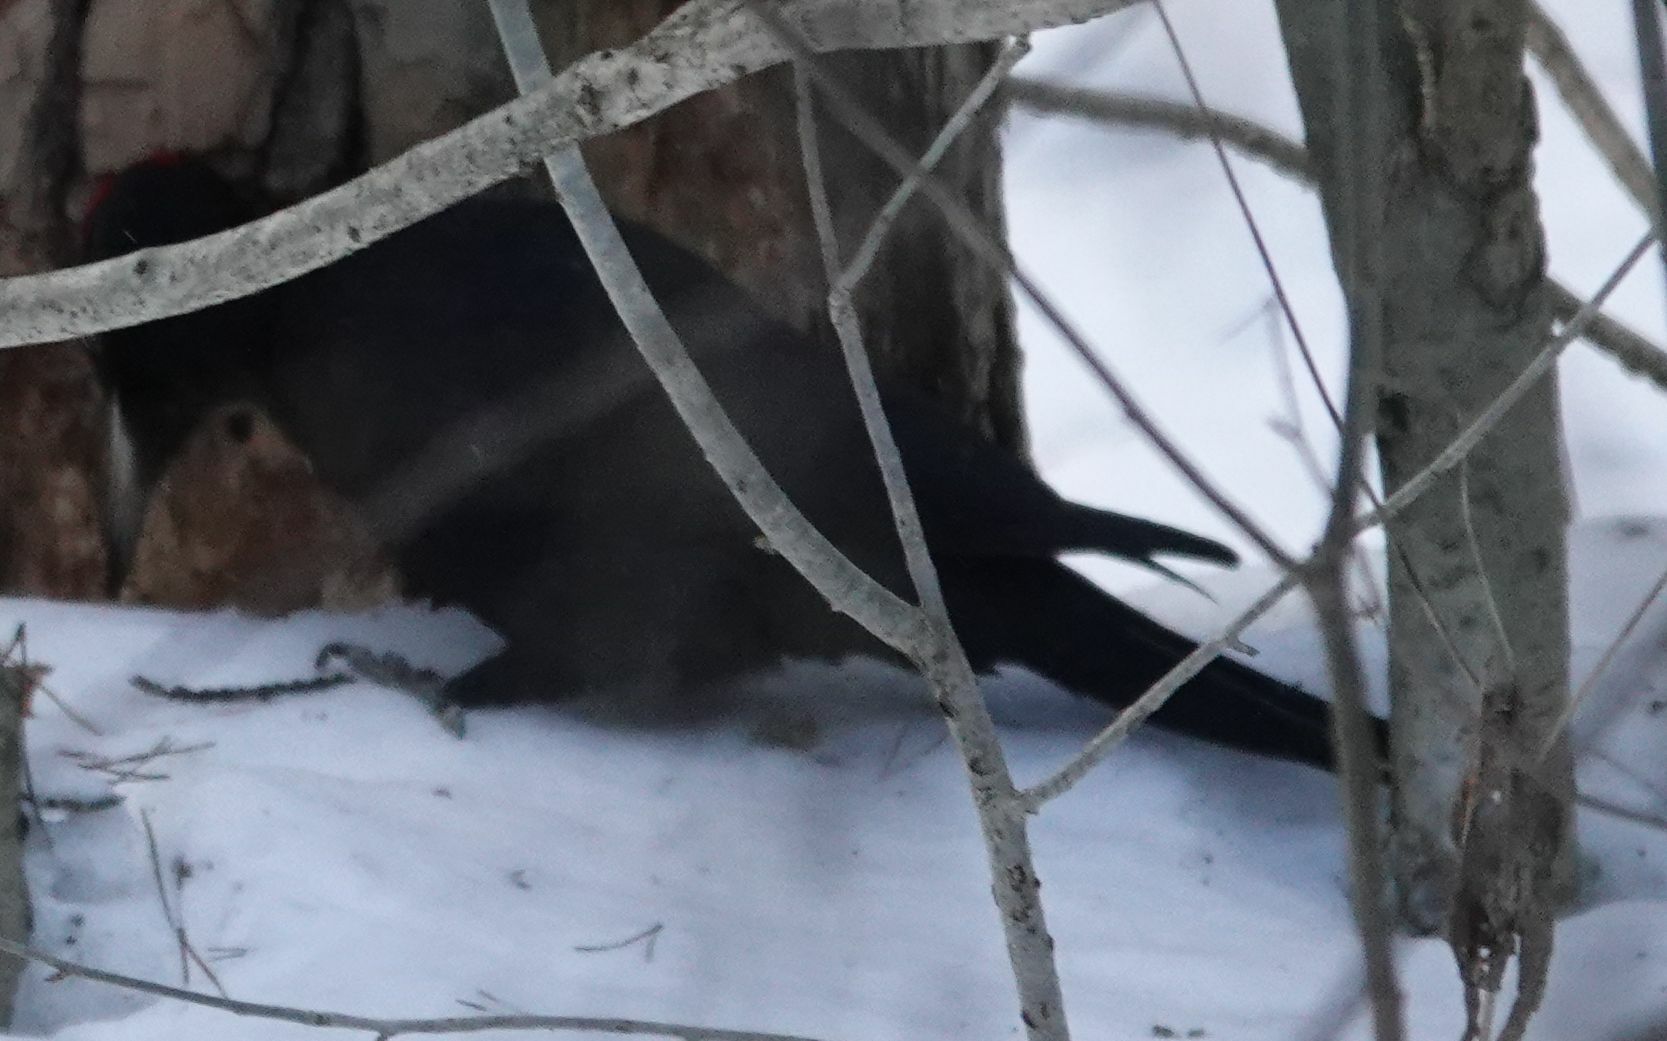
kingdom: Animalia
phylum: Chordata
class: Aves
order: Piciformes
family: Picidae
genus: Dryocopus
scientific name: Dryocopus martius
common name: Black woodpecker
